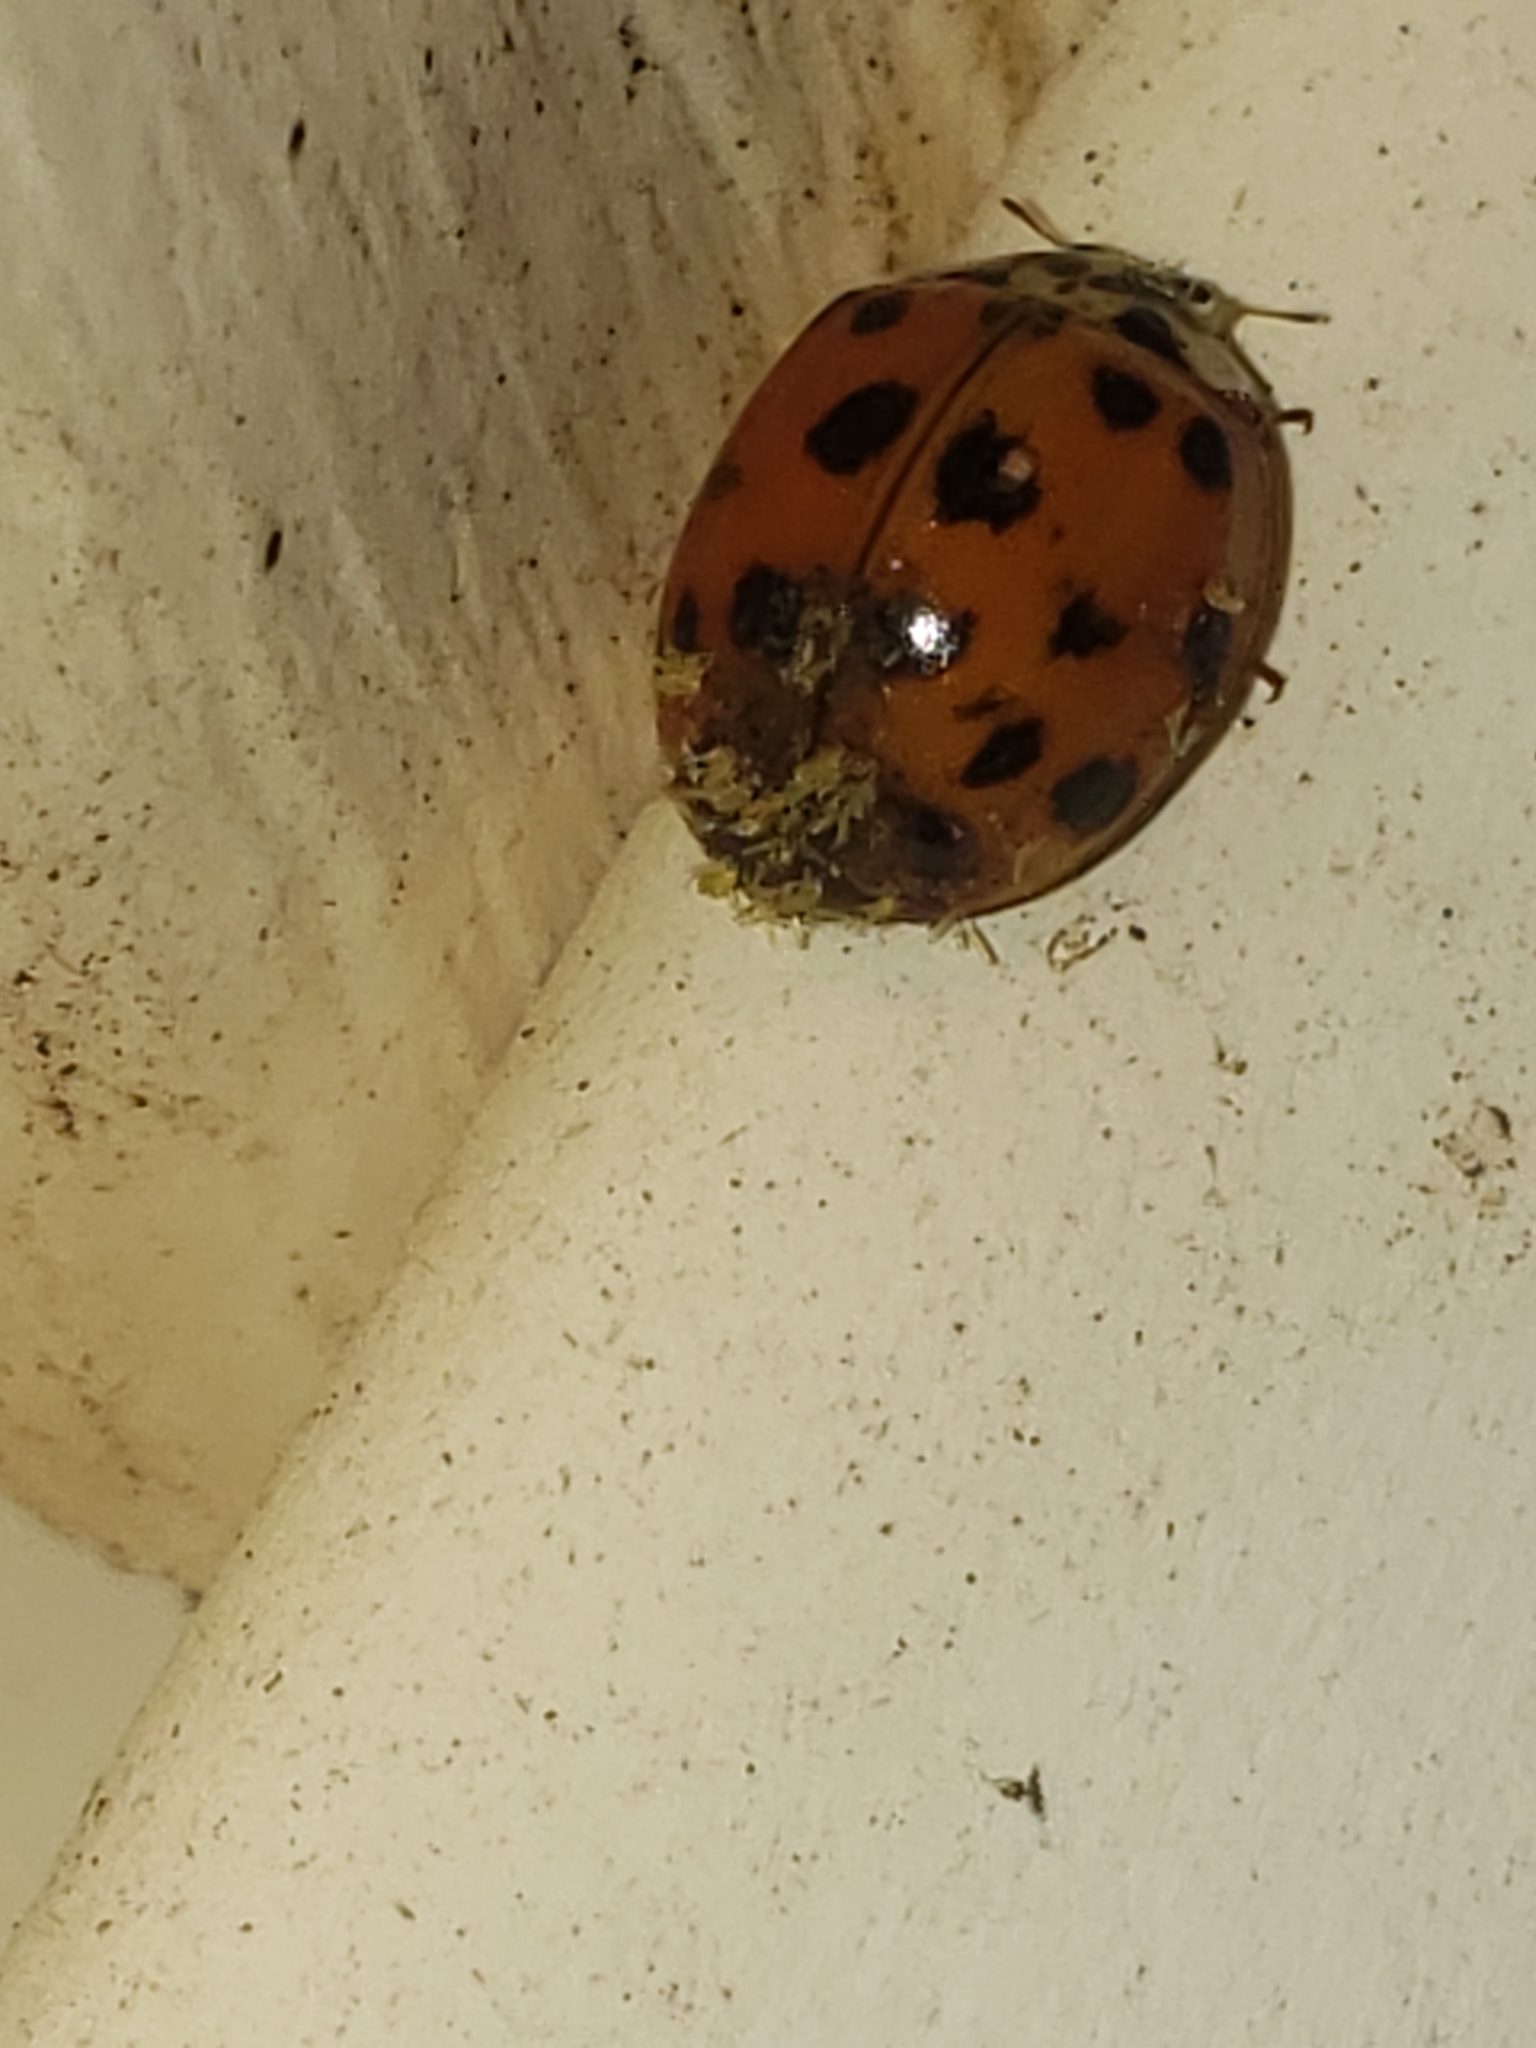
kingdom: Fungi
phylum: Ascomycota
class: Laboulbeniomycetes
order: Laboulbeniales
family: Laboulbeniaceae
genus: Hesperomyces
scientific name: Hesperomyces harmoniae
